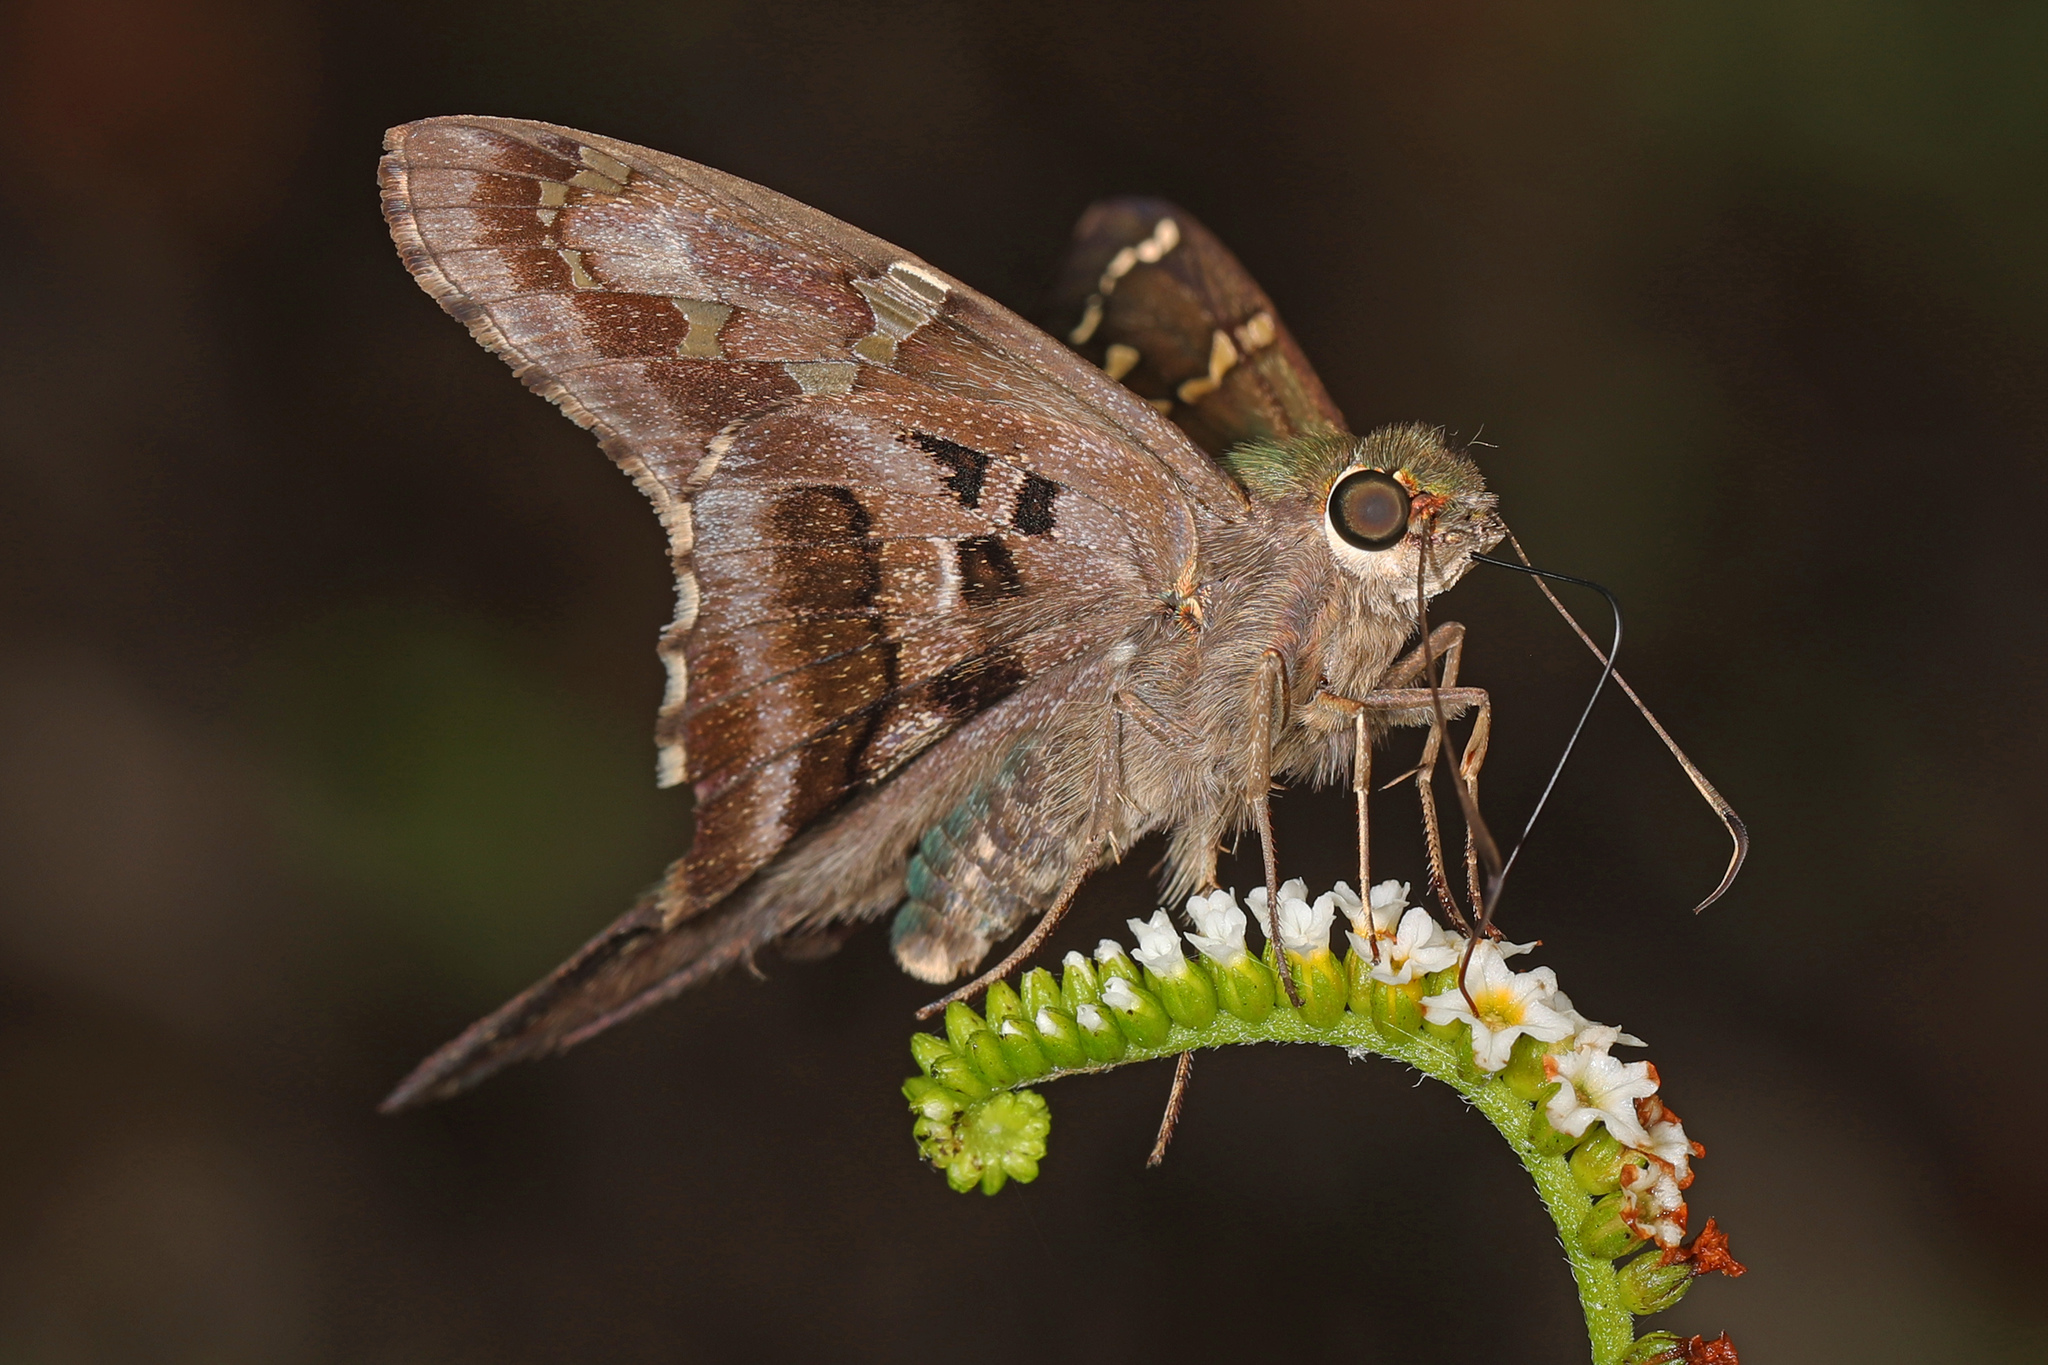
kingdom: Animalia
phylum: Arthropoda
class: Insecta
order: Lepidoptera
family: Hesperiidae
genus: Urbanus
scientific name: Urbanus proteus
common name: Long-tailed skipper
